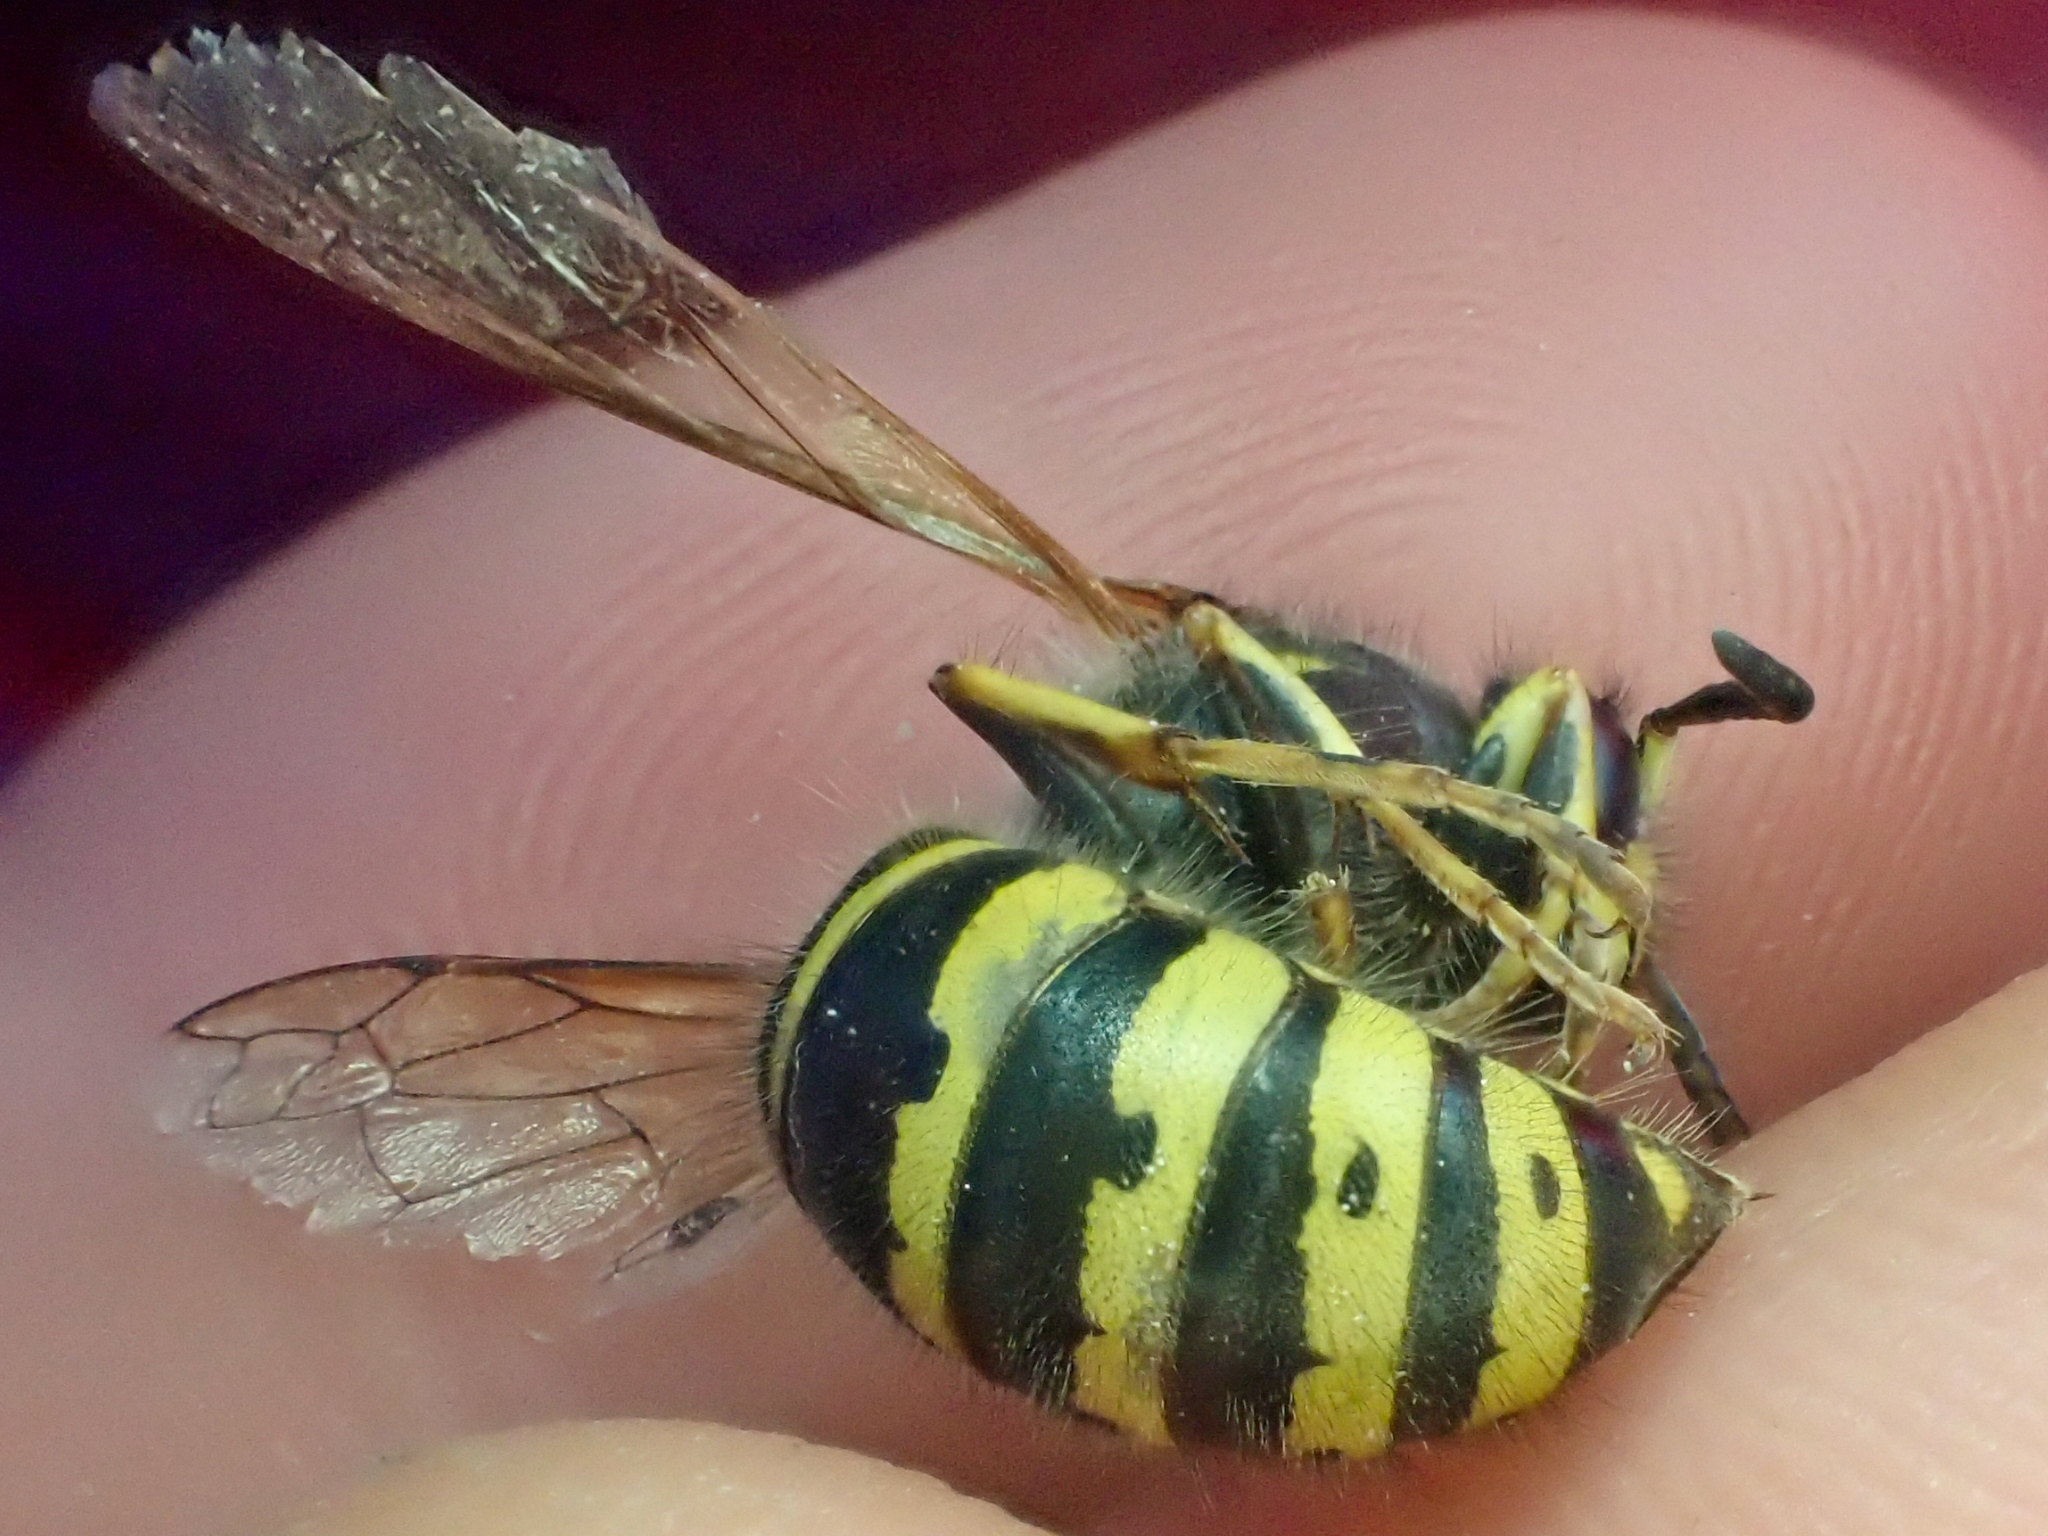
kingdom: Animalia
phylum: Arthropoda
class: Insecta
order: Hymenoptera
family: Vespidae
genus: Dolichovespula
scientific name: Dolichovespula alpicola
